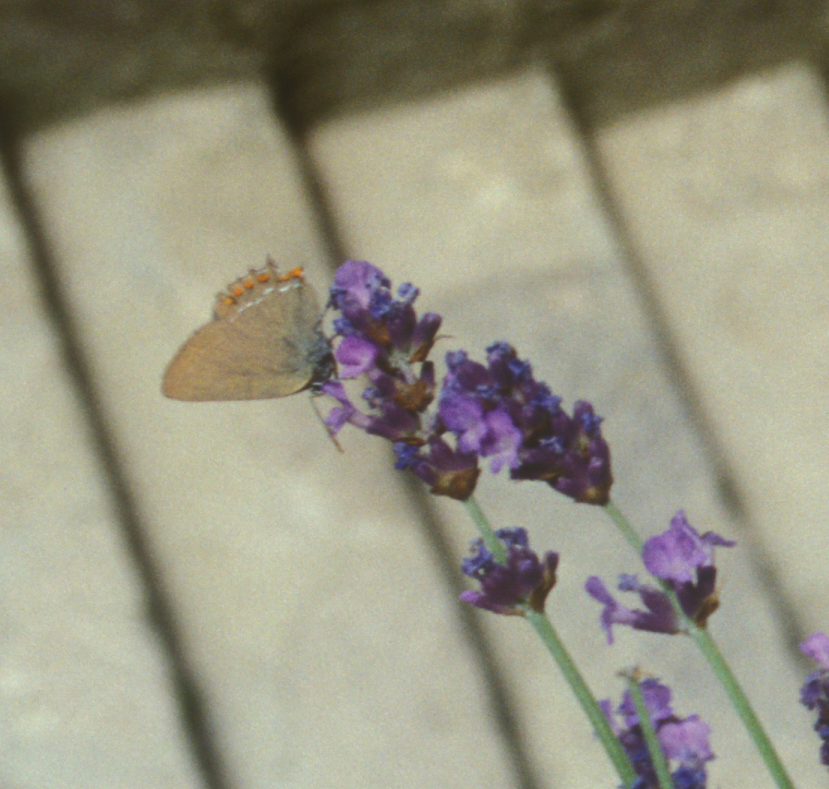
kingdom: Animalia
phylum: Arthropoda
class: Insecta
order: Lepidoptera
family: Lycaenidae
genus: Fixsenia
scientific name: Fixsenia esculi
